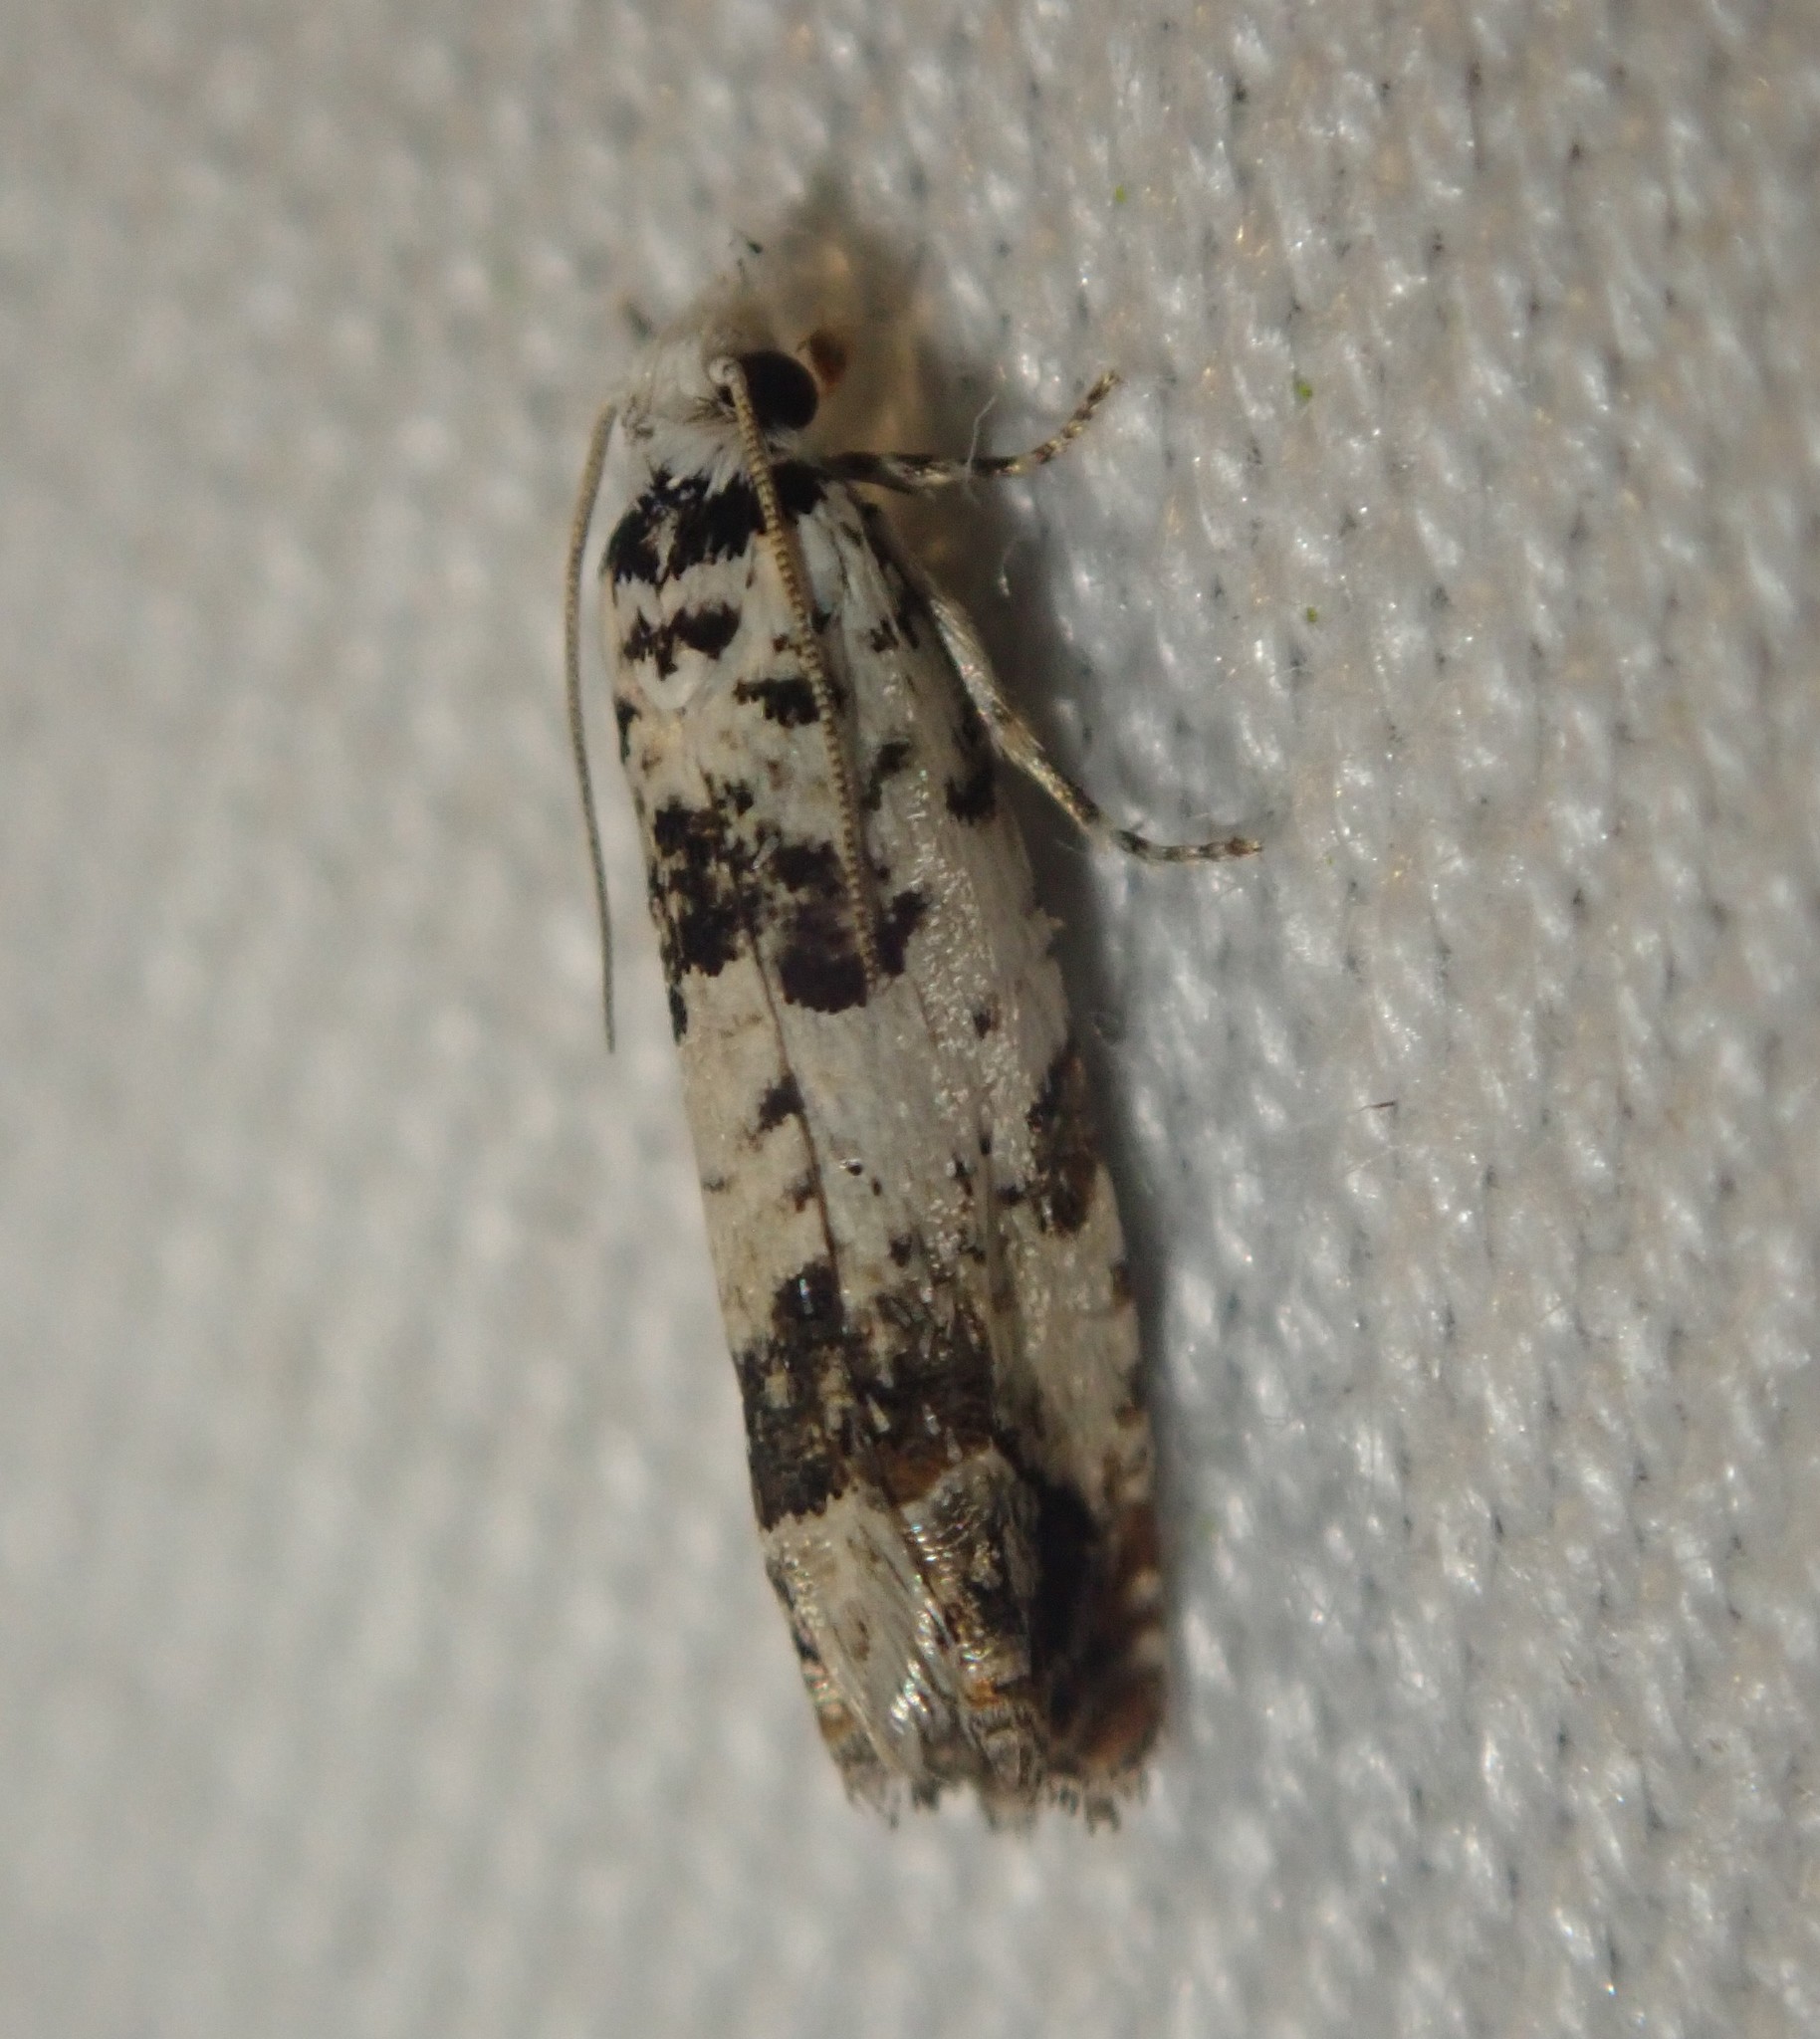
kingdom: Animalia
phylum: Arthropoda
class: Insecta
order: Lepidoptera
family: Tortricidae
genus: Eucosma
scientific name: Eucosma campoliliana
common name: Marbled bell
